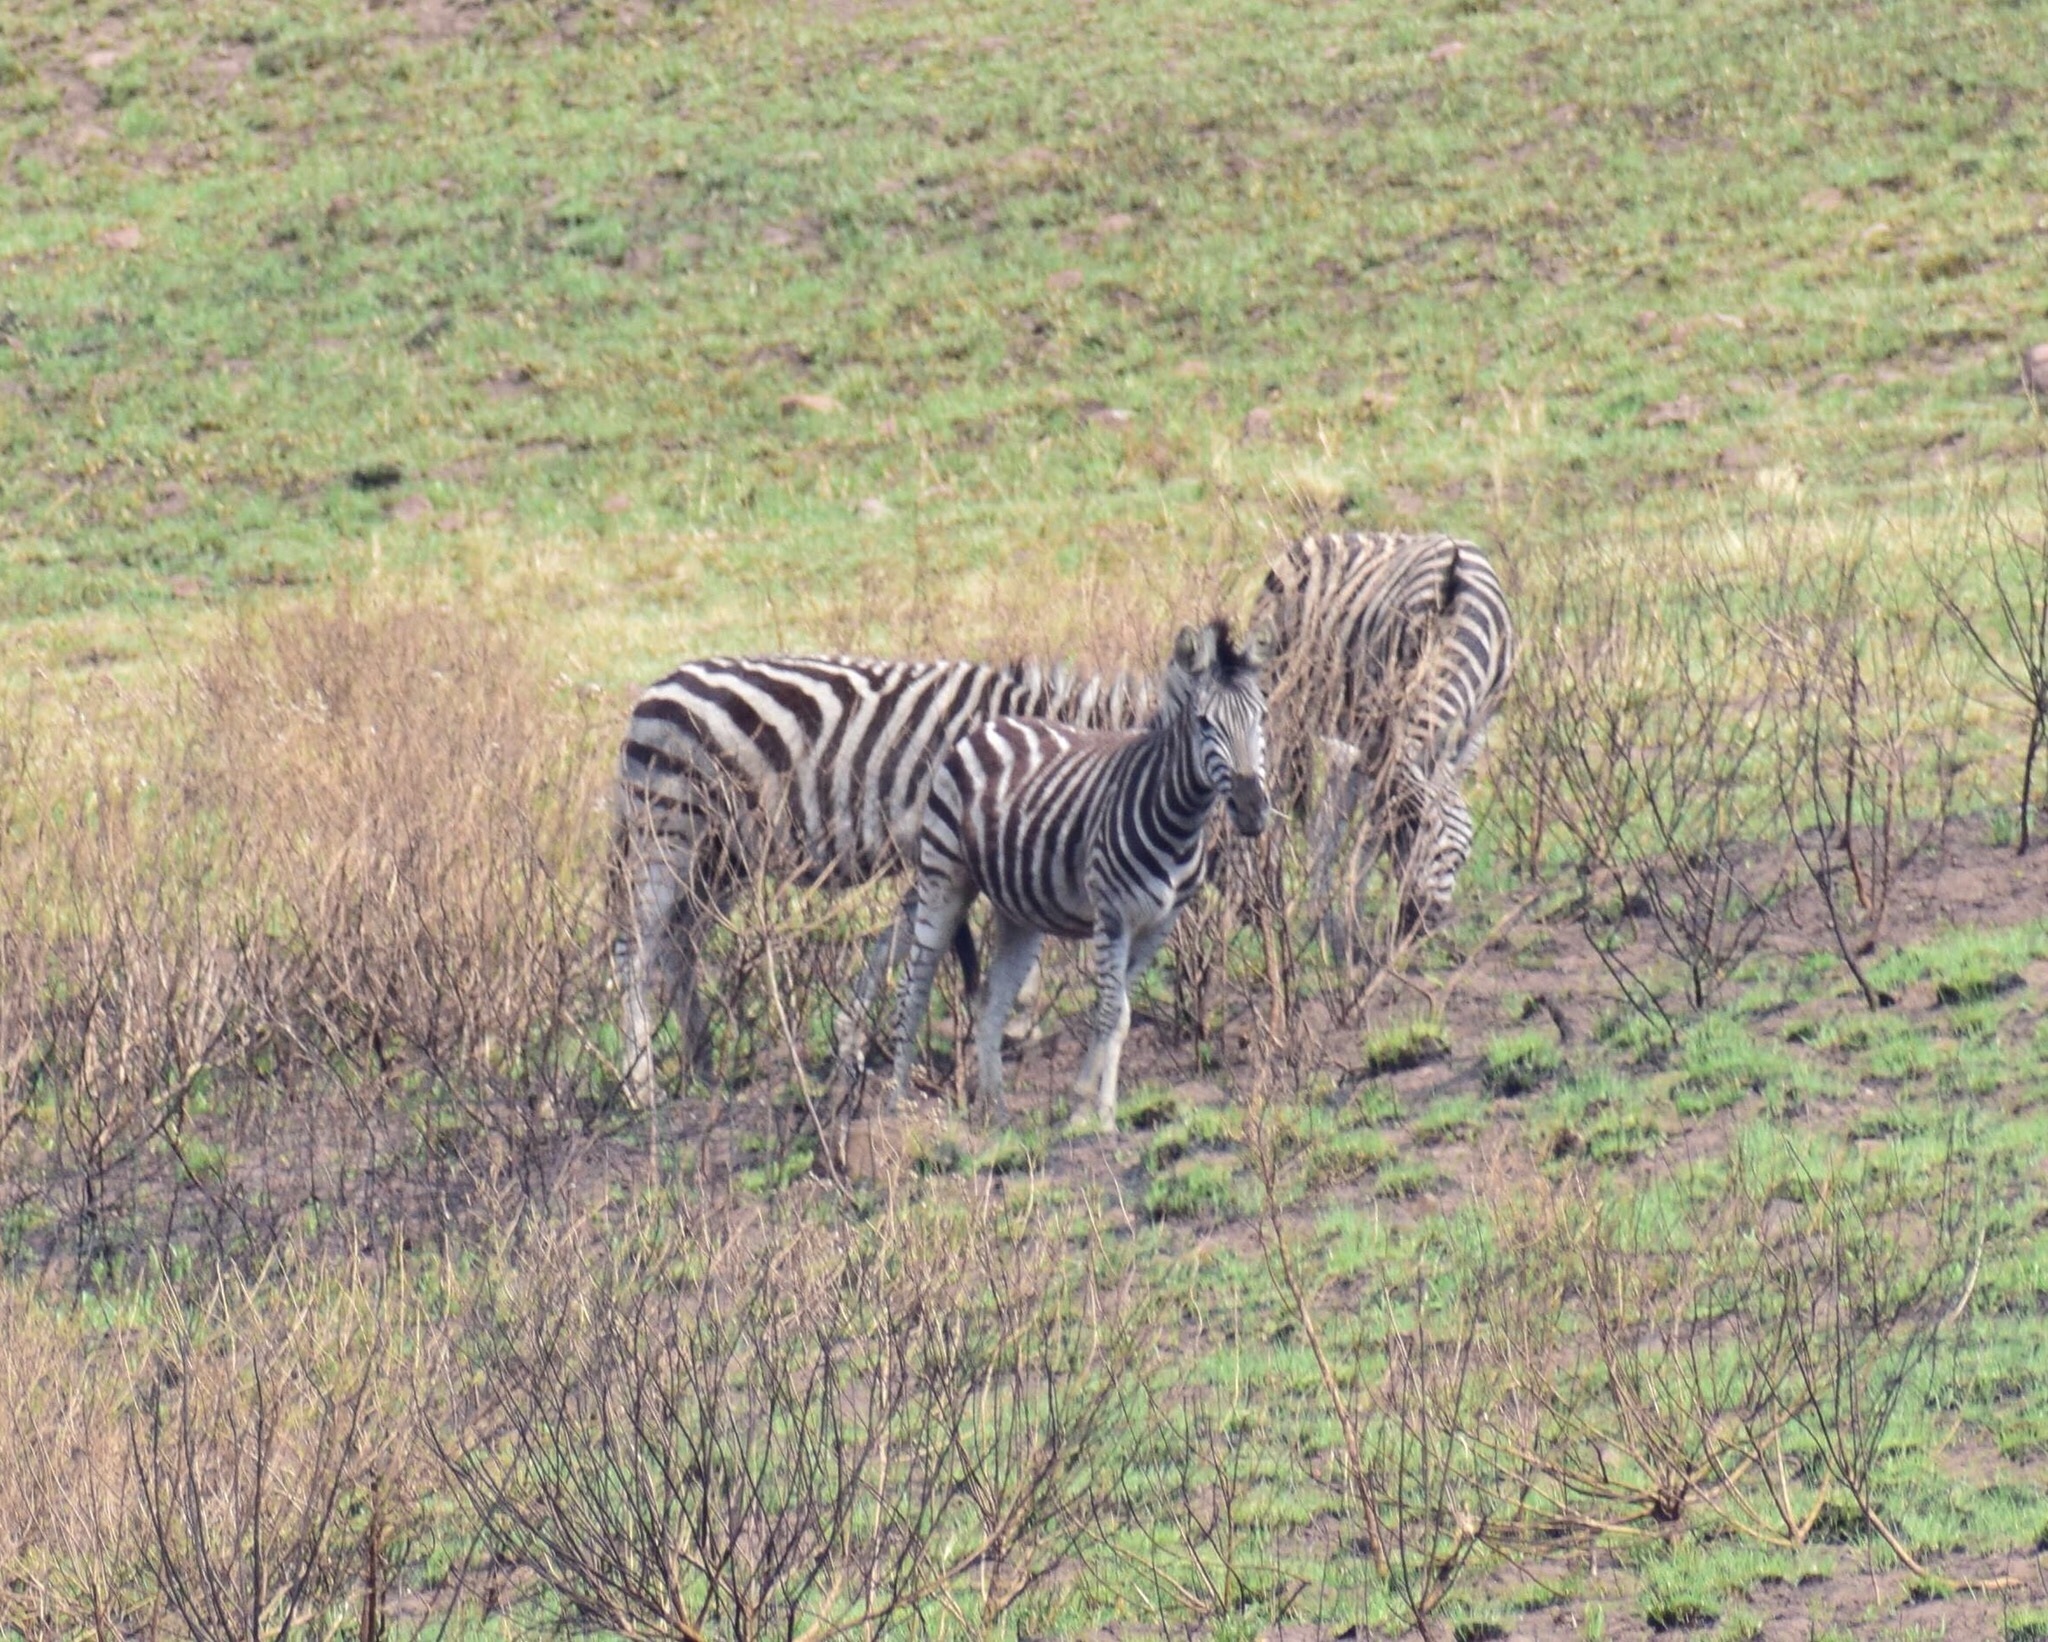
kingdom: Animalia
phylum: Chordata
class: Mammalia
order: Perissodactyla
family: Equidae
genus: Equus
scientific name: Equus quagga
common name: Plains zebra
